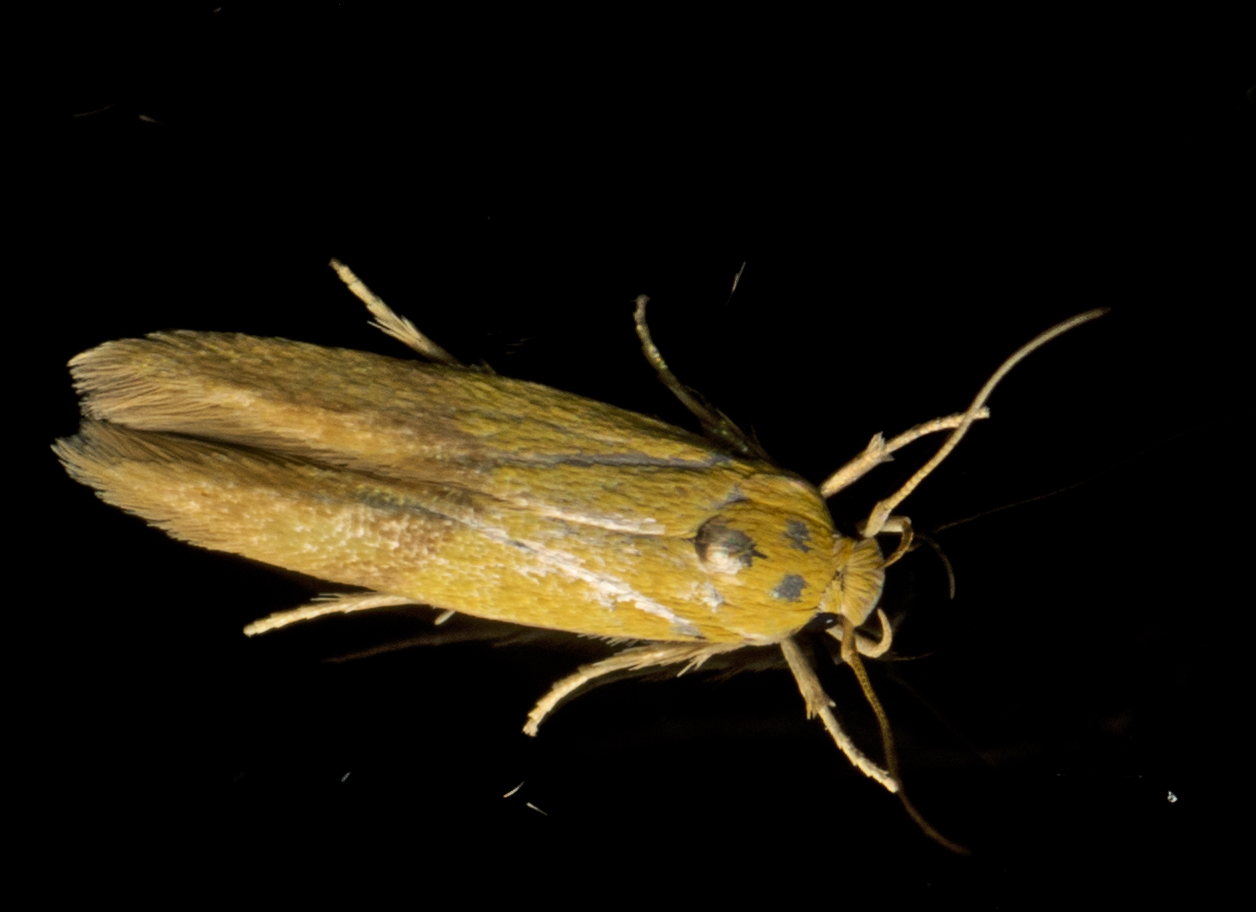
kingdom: Animalia
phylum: Arthropoda
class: Insecta
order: Lepidoptera
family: Stathmopodidae
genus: Stathmopoda
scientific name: Stathmopoda auriferella
